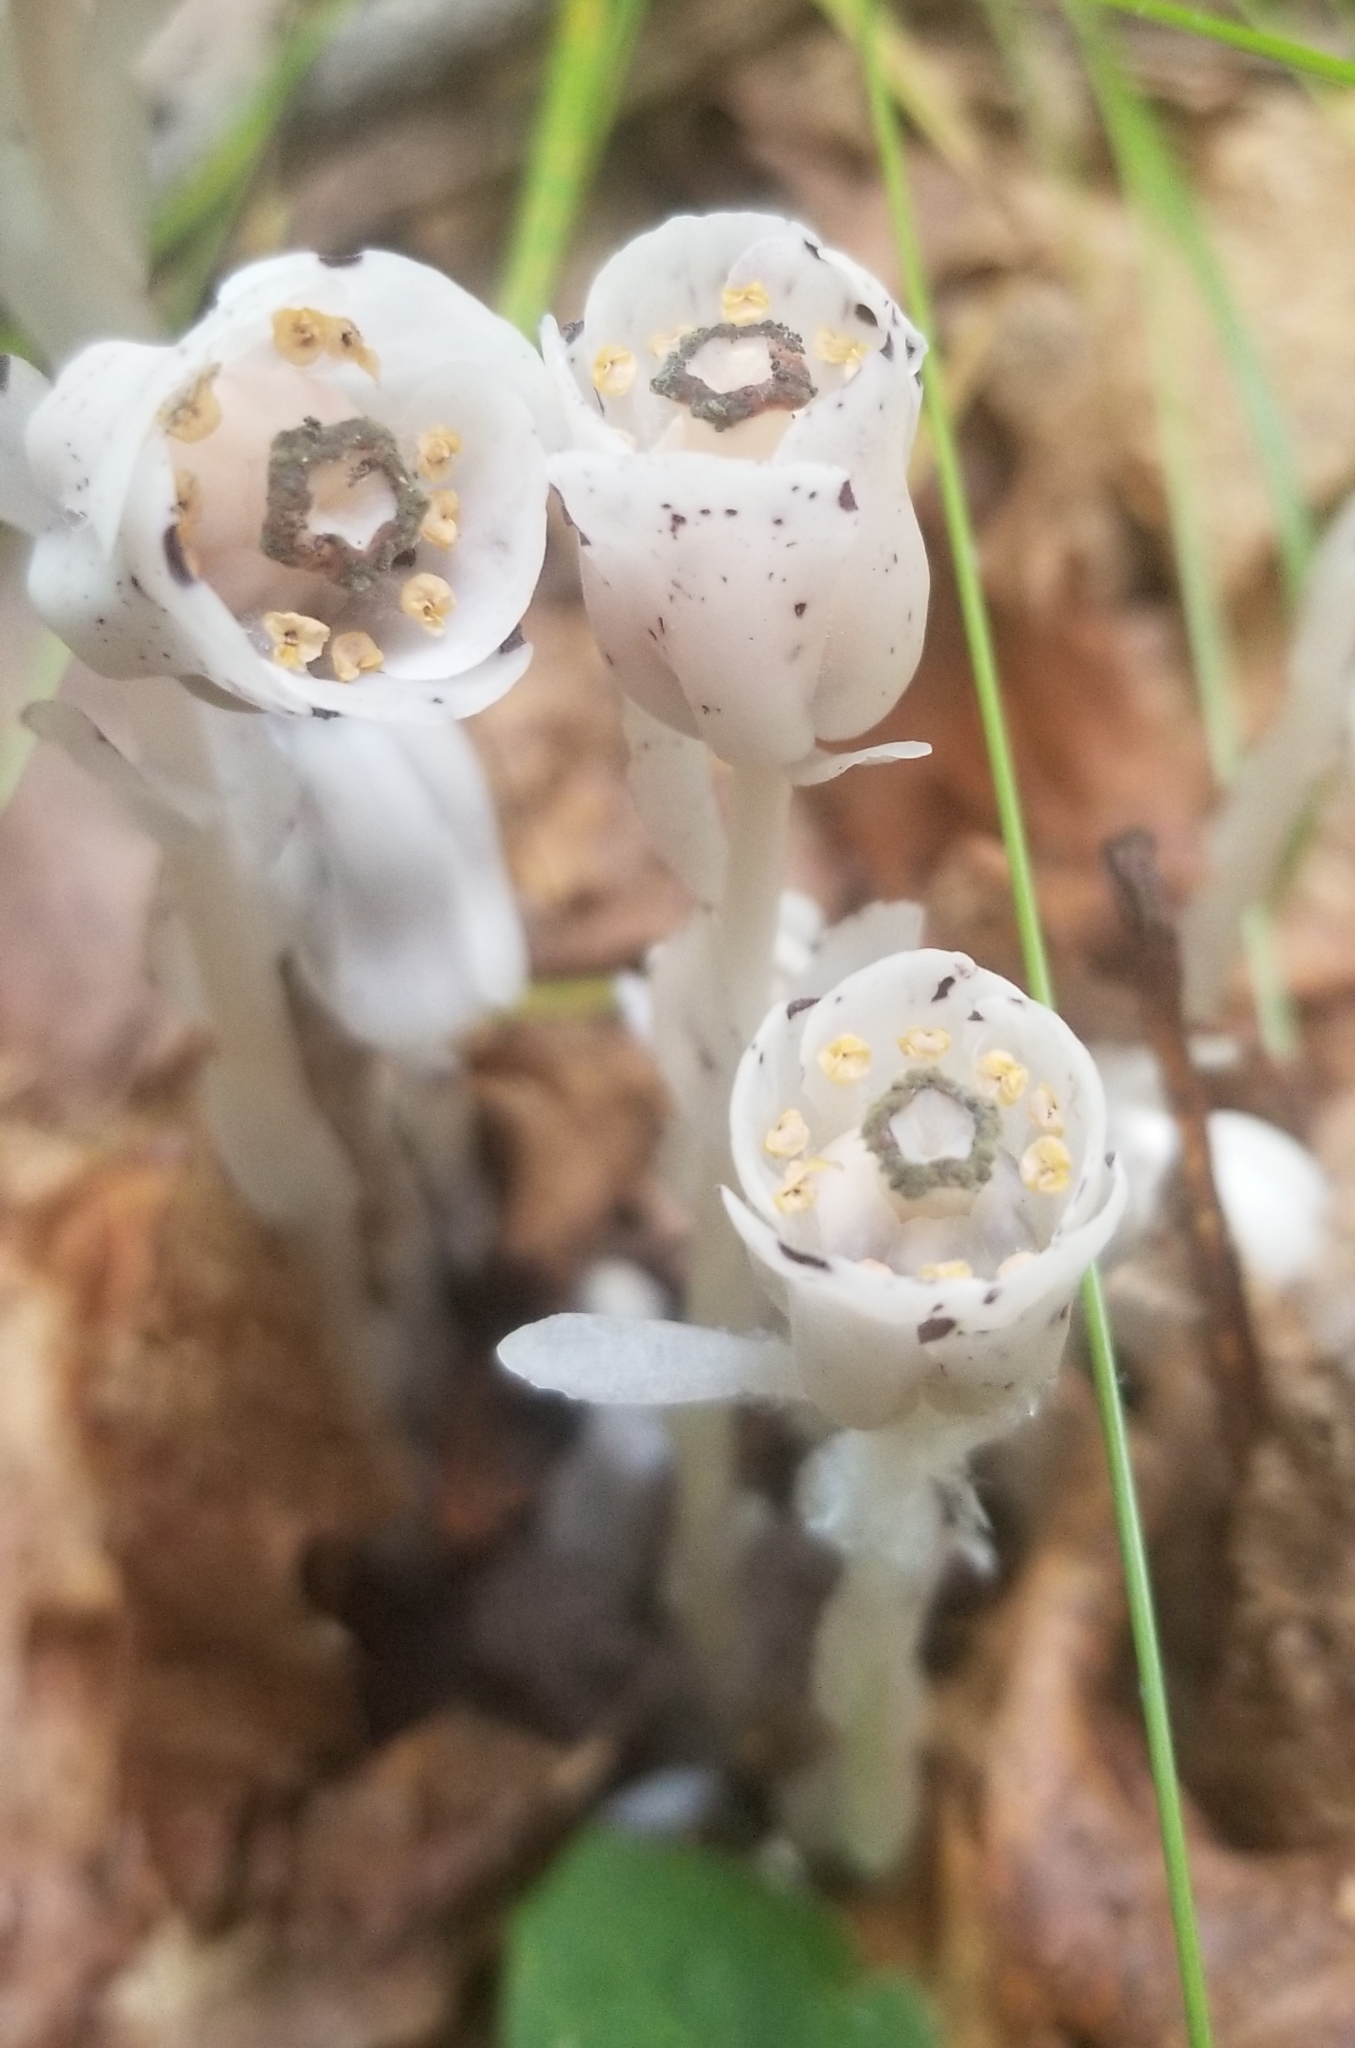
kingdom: Plantae
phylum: Tracheophyta
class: Magnoliopsida
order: Ericales
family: Ericaceae
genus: Monotropa
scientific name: Monotropa uniflora
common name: Convulsion root
